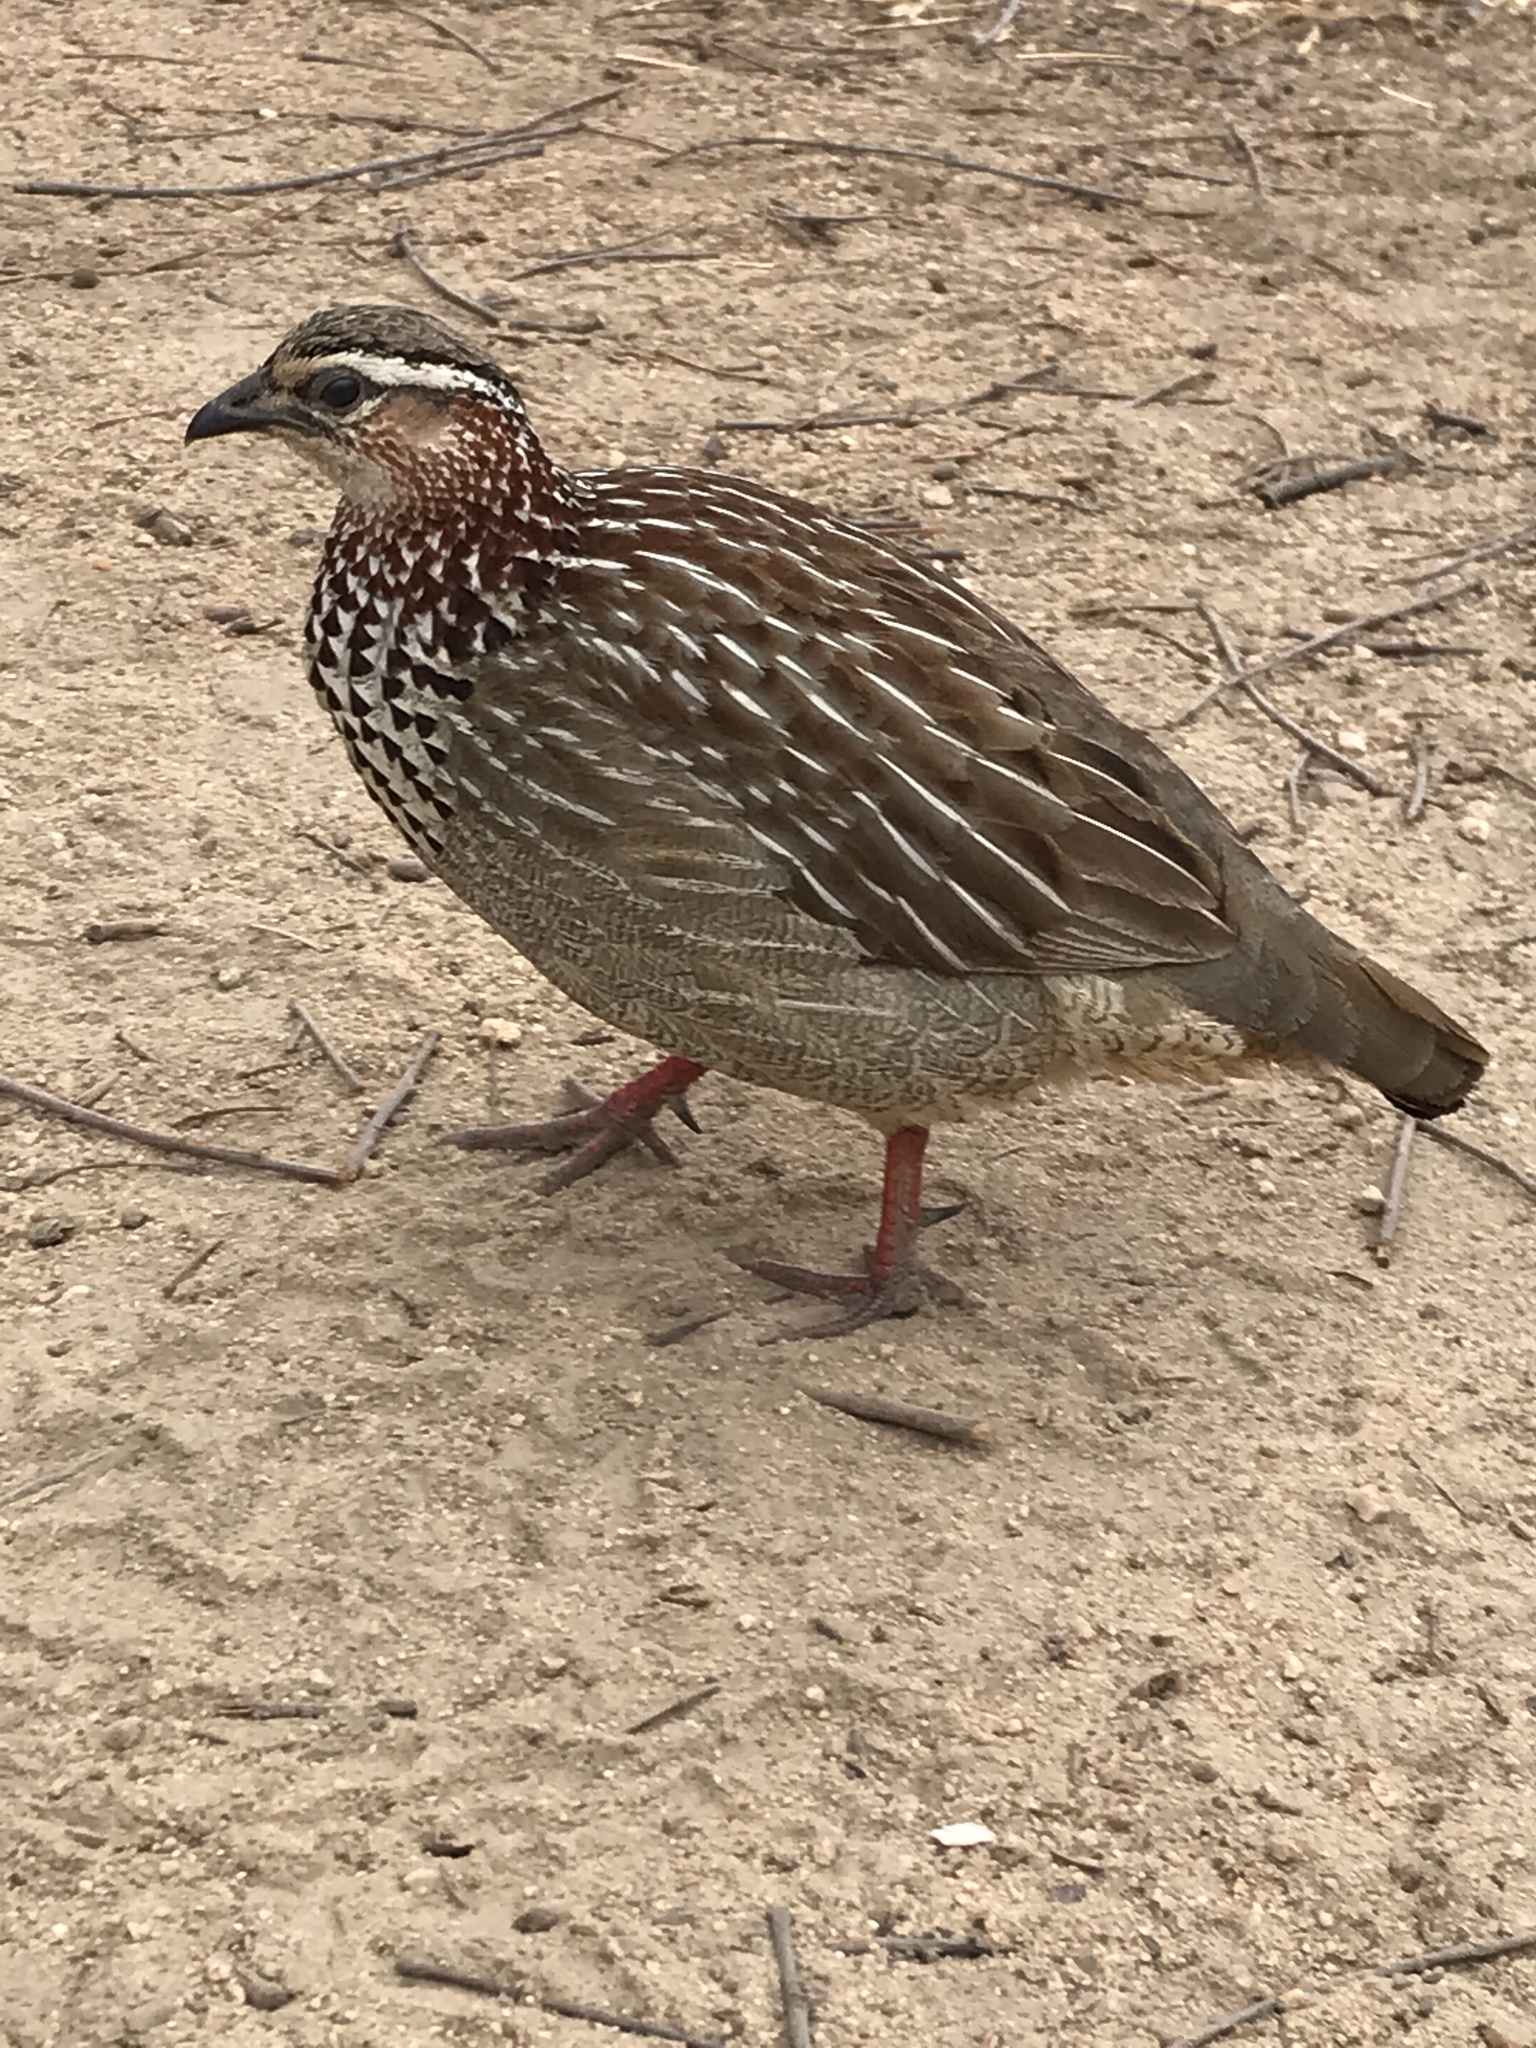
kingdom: Animalia
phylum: Chordata
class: Aves
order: Galliformes
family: Phasianidae
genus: Ortygornis
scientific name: Ortygornis sephaena
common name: Crested francolin
